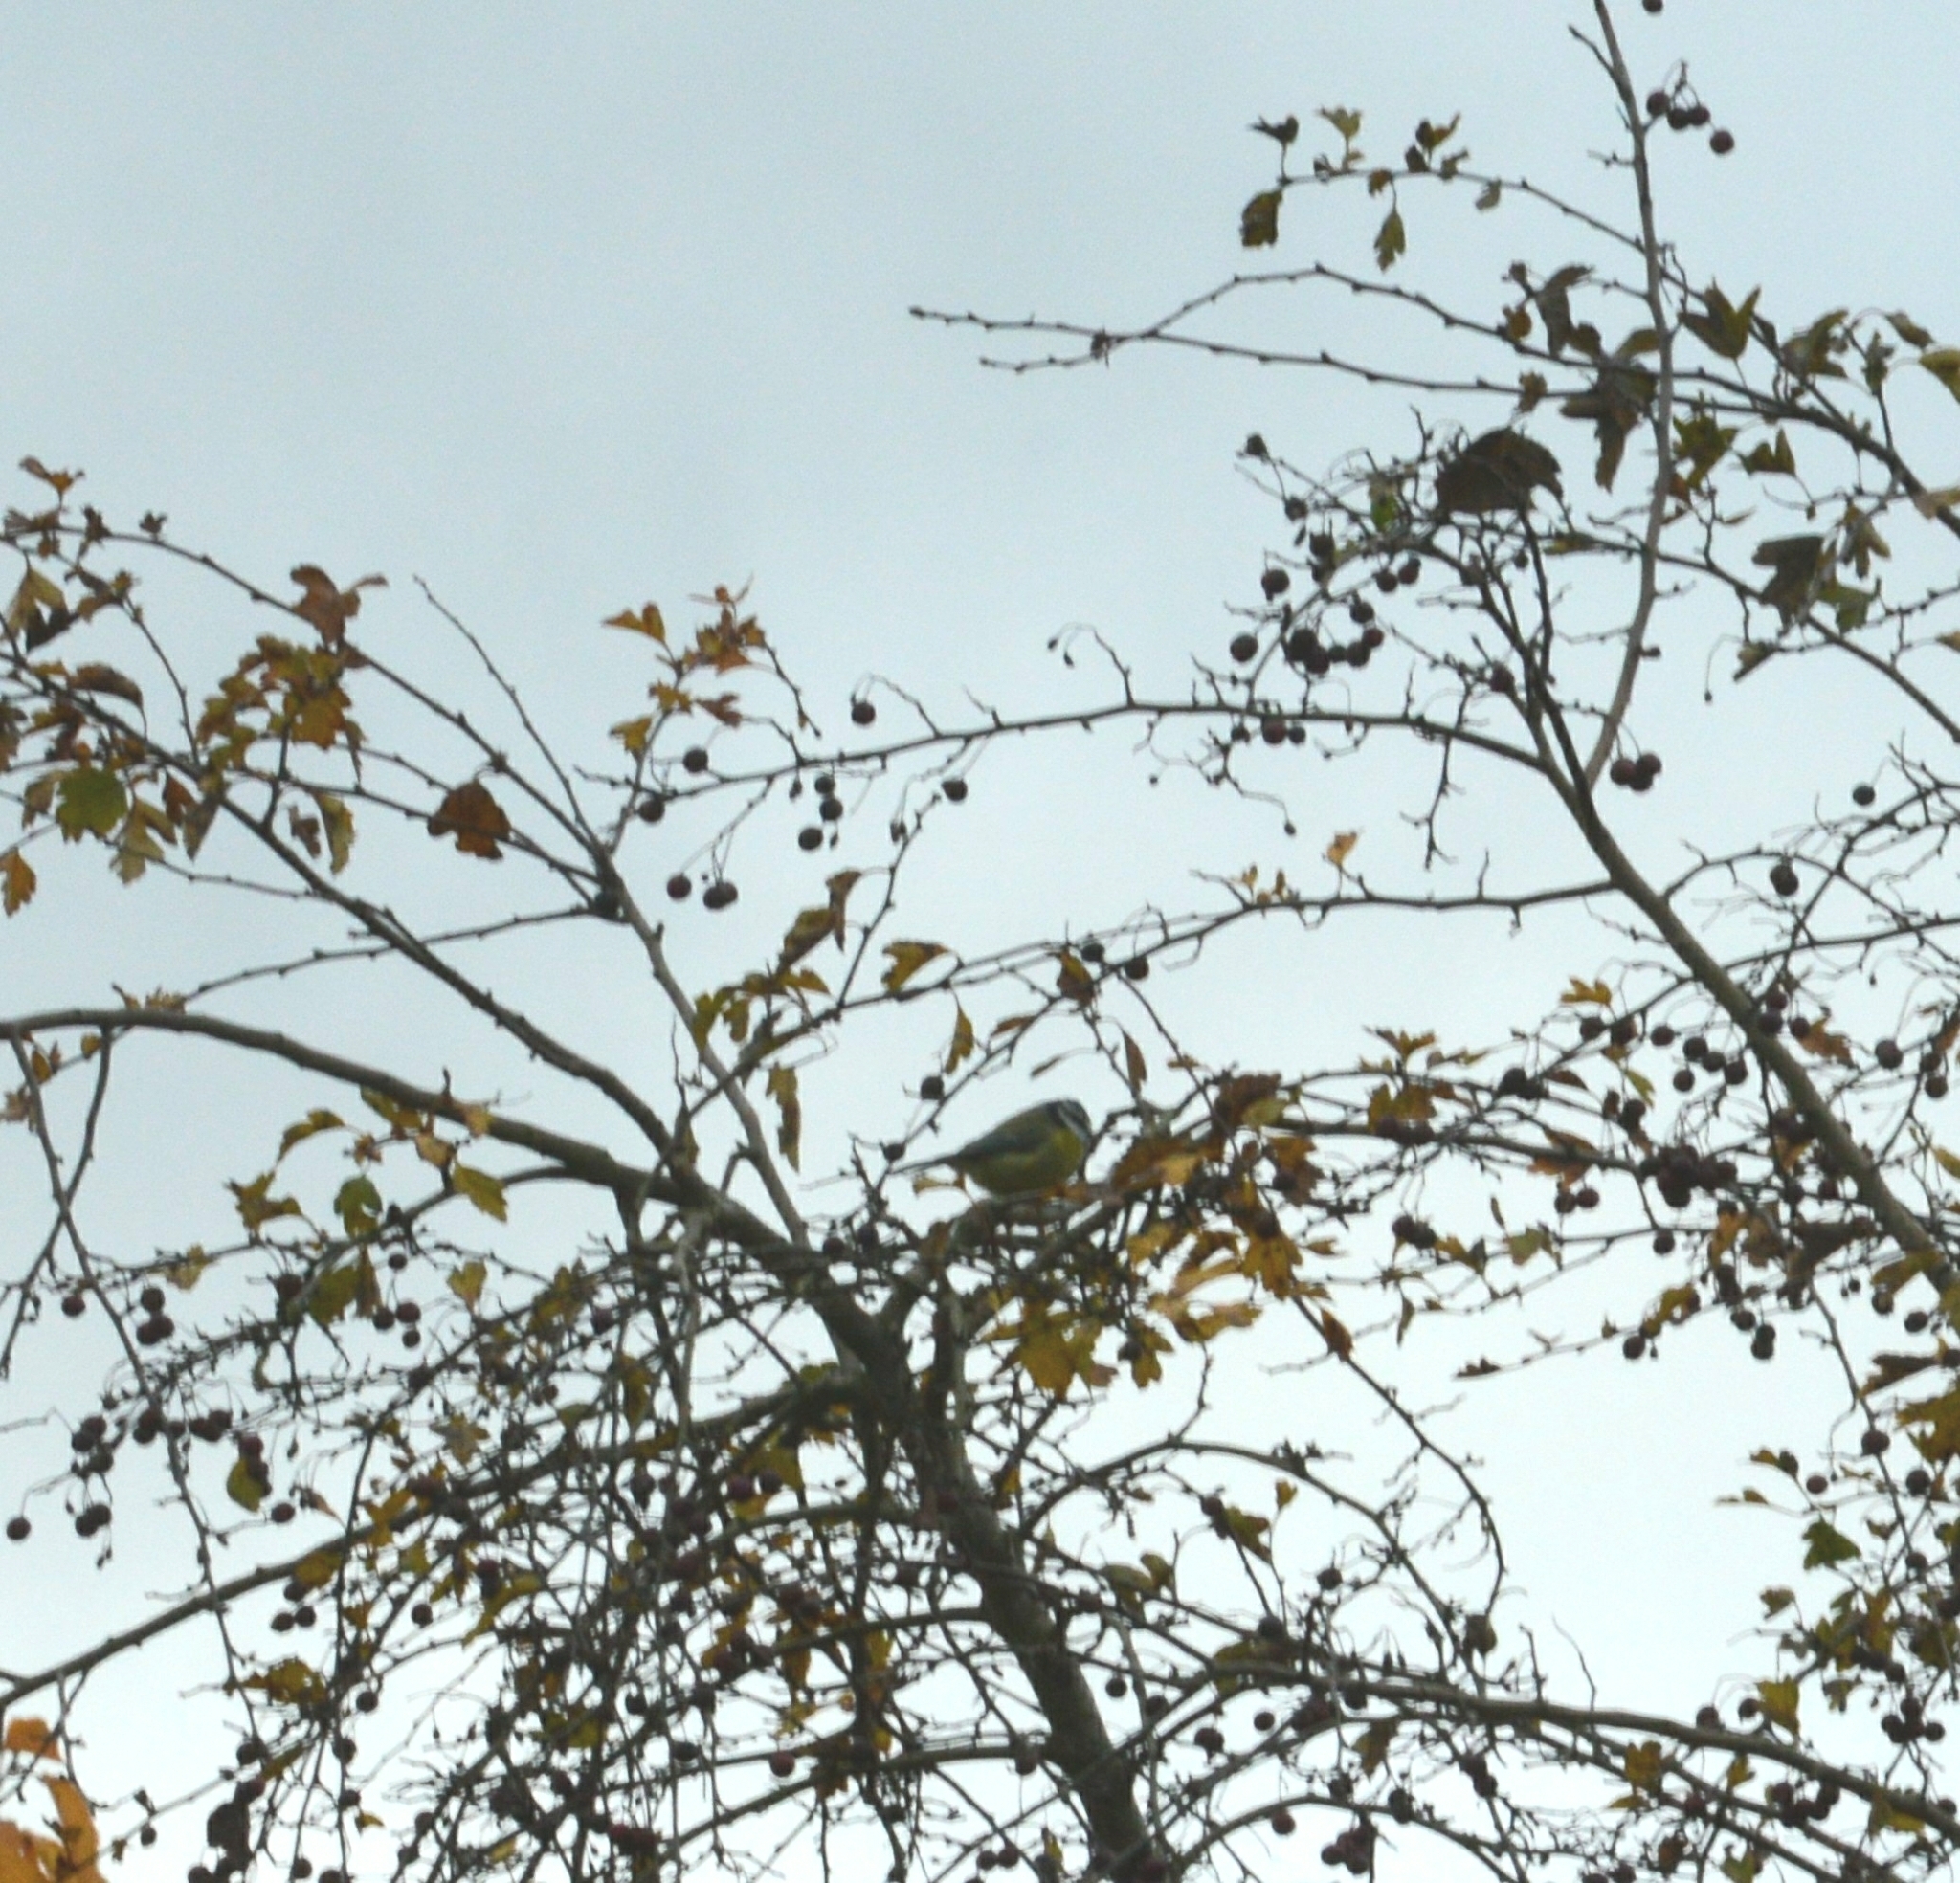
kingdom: Animalia
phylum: Chordata
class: Aves
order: Passeriformes
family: Paridae
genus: Cyanistes
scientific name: Cyanistes caeruleus
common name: Eurasian blue tit
